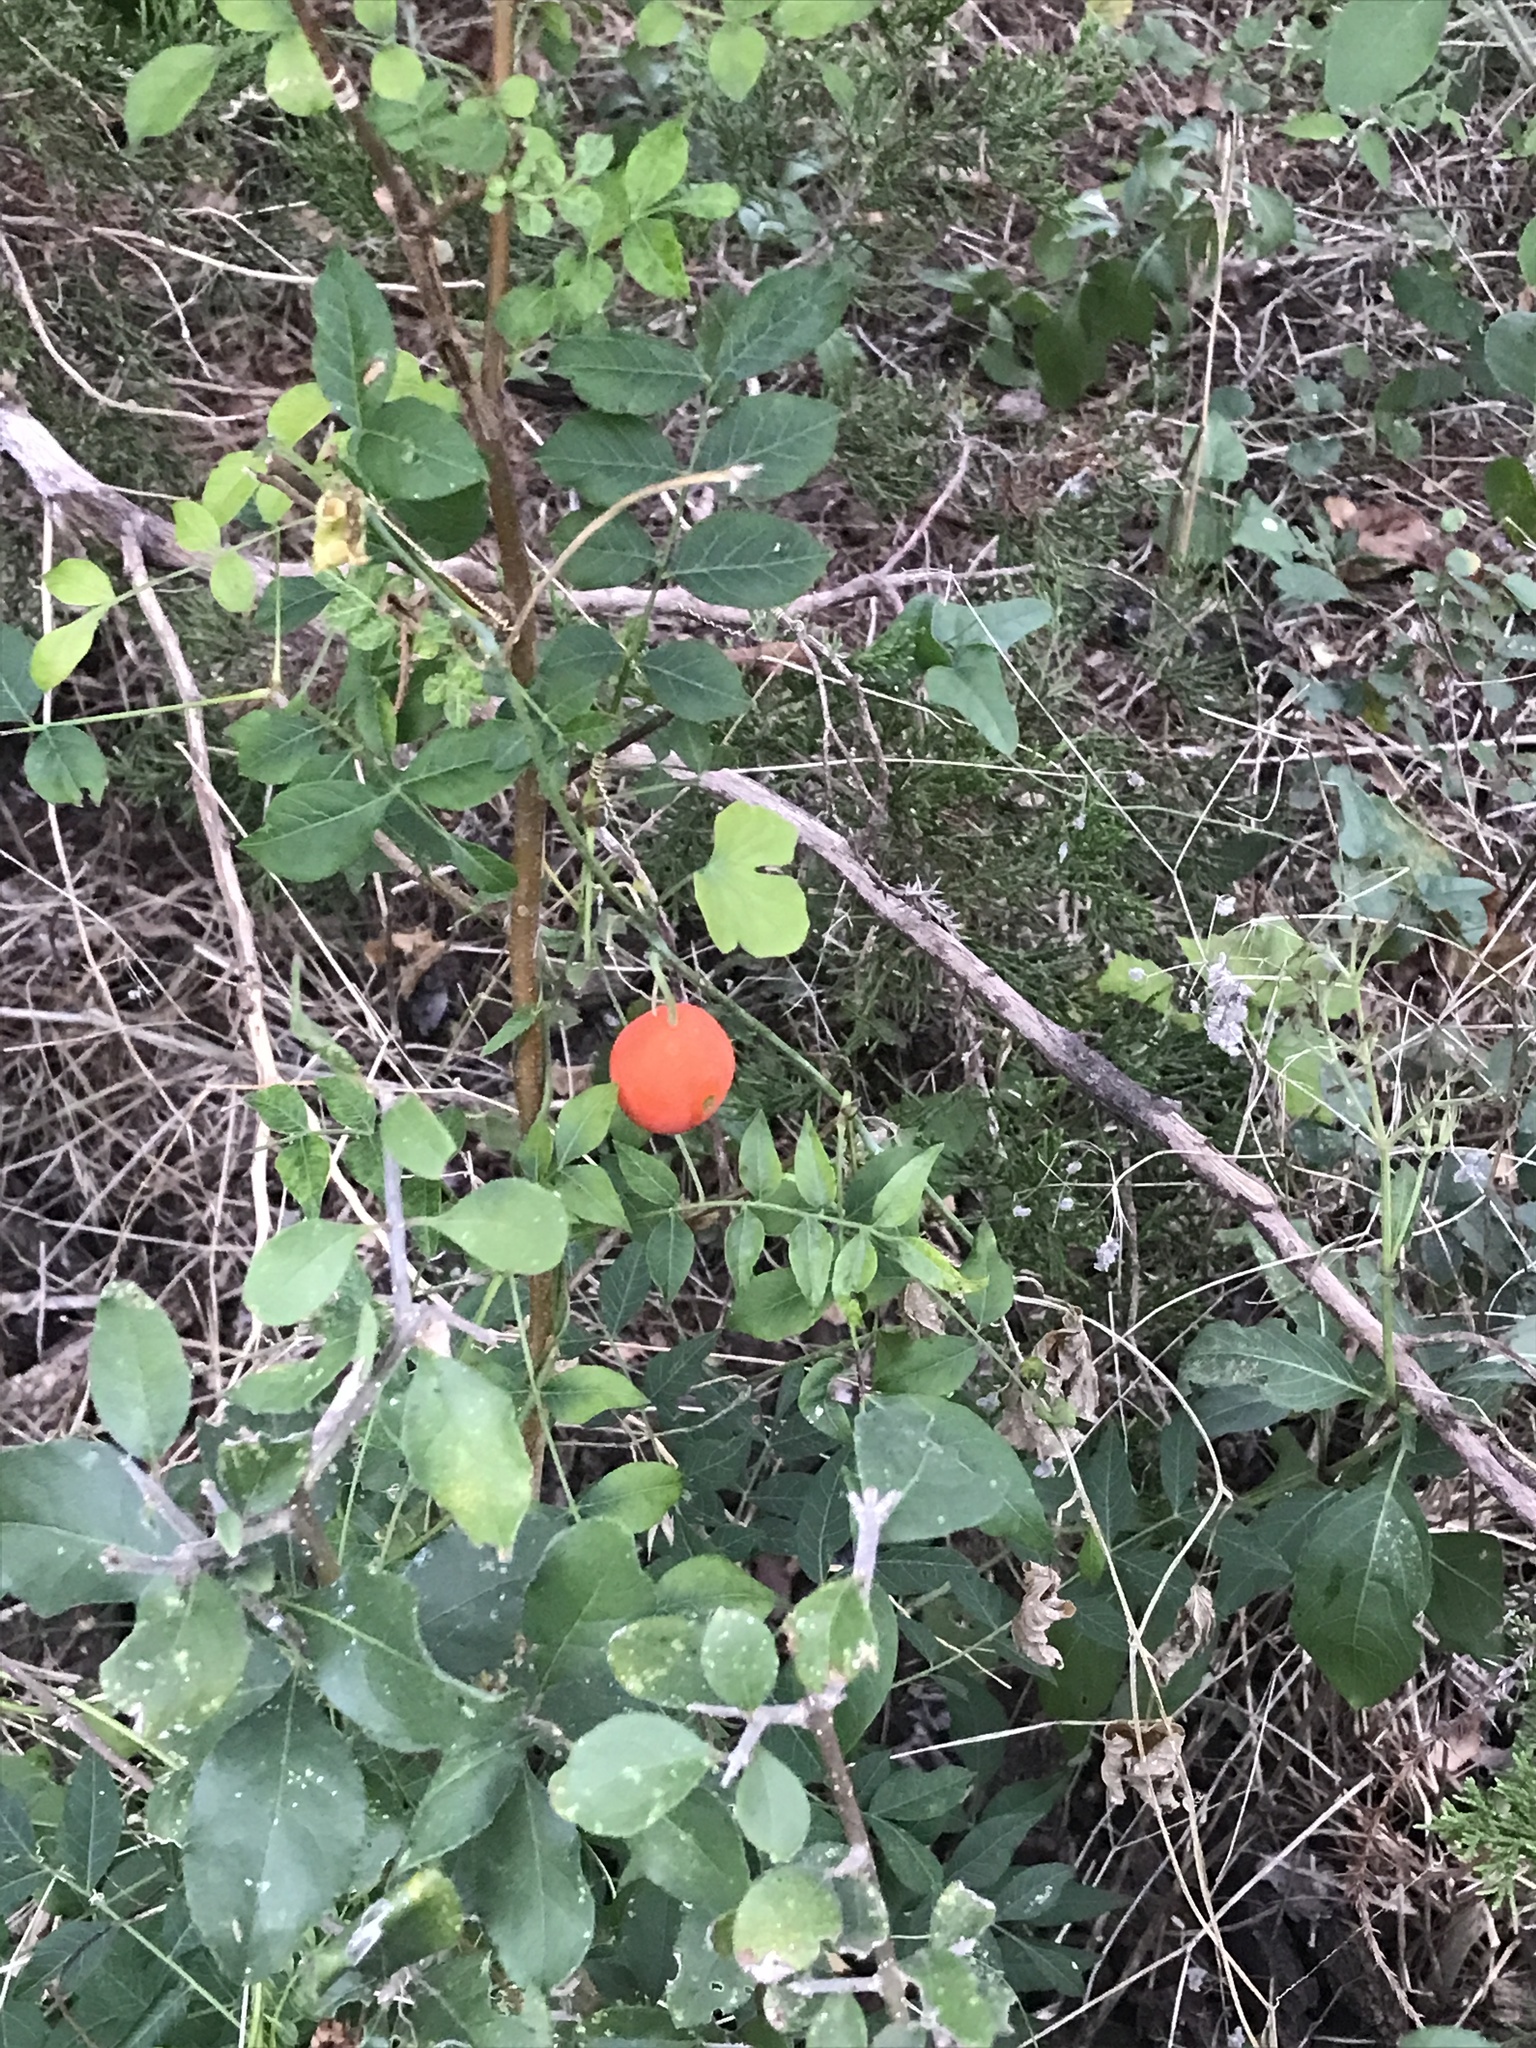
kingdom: Plantae
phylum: Tracheophyta
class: Magnoliopsida
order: Cucurbitales
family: Cucurbitaceae
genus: Ibervillea
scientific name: Ibervillea lindheimeri
